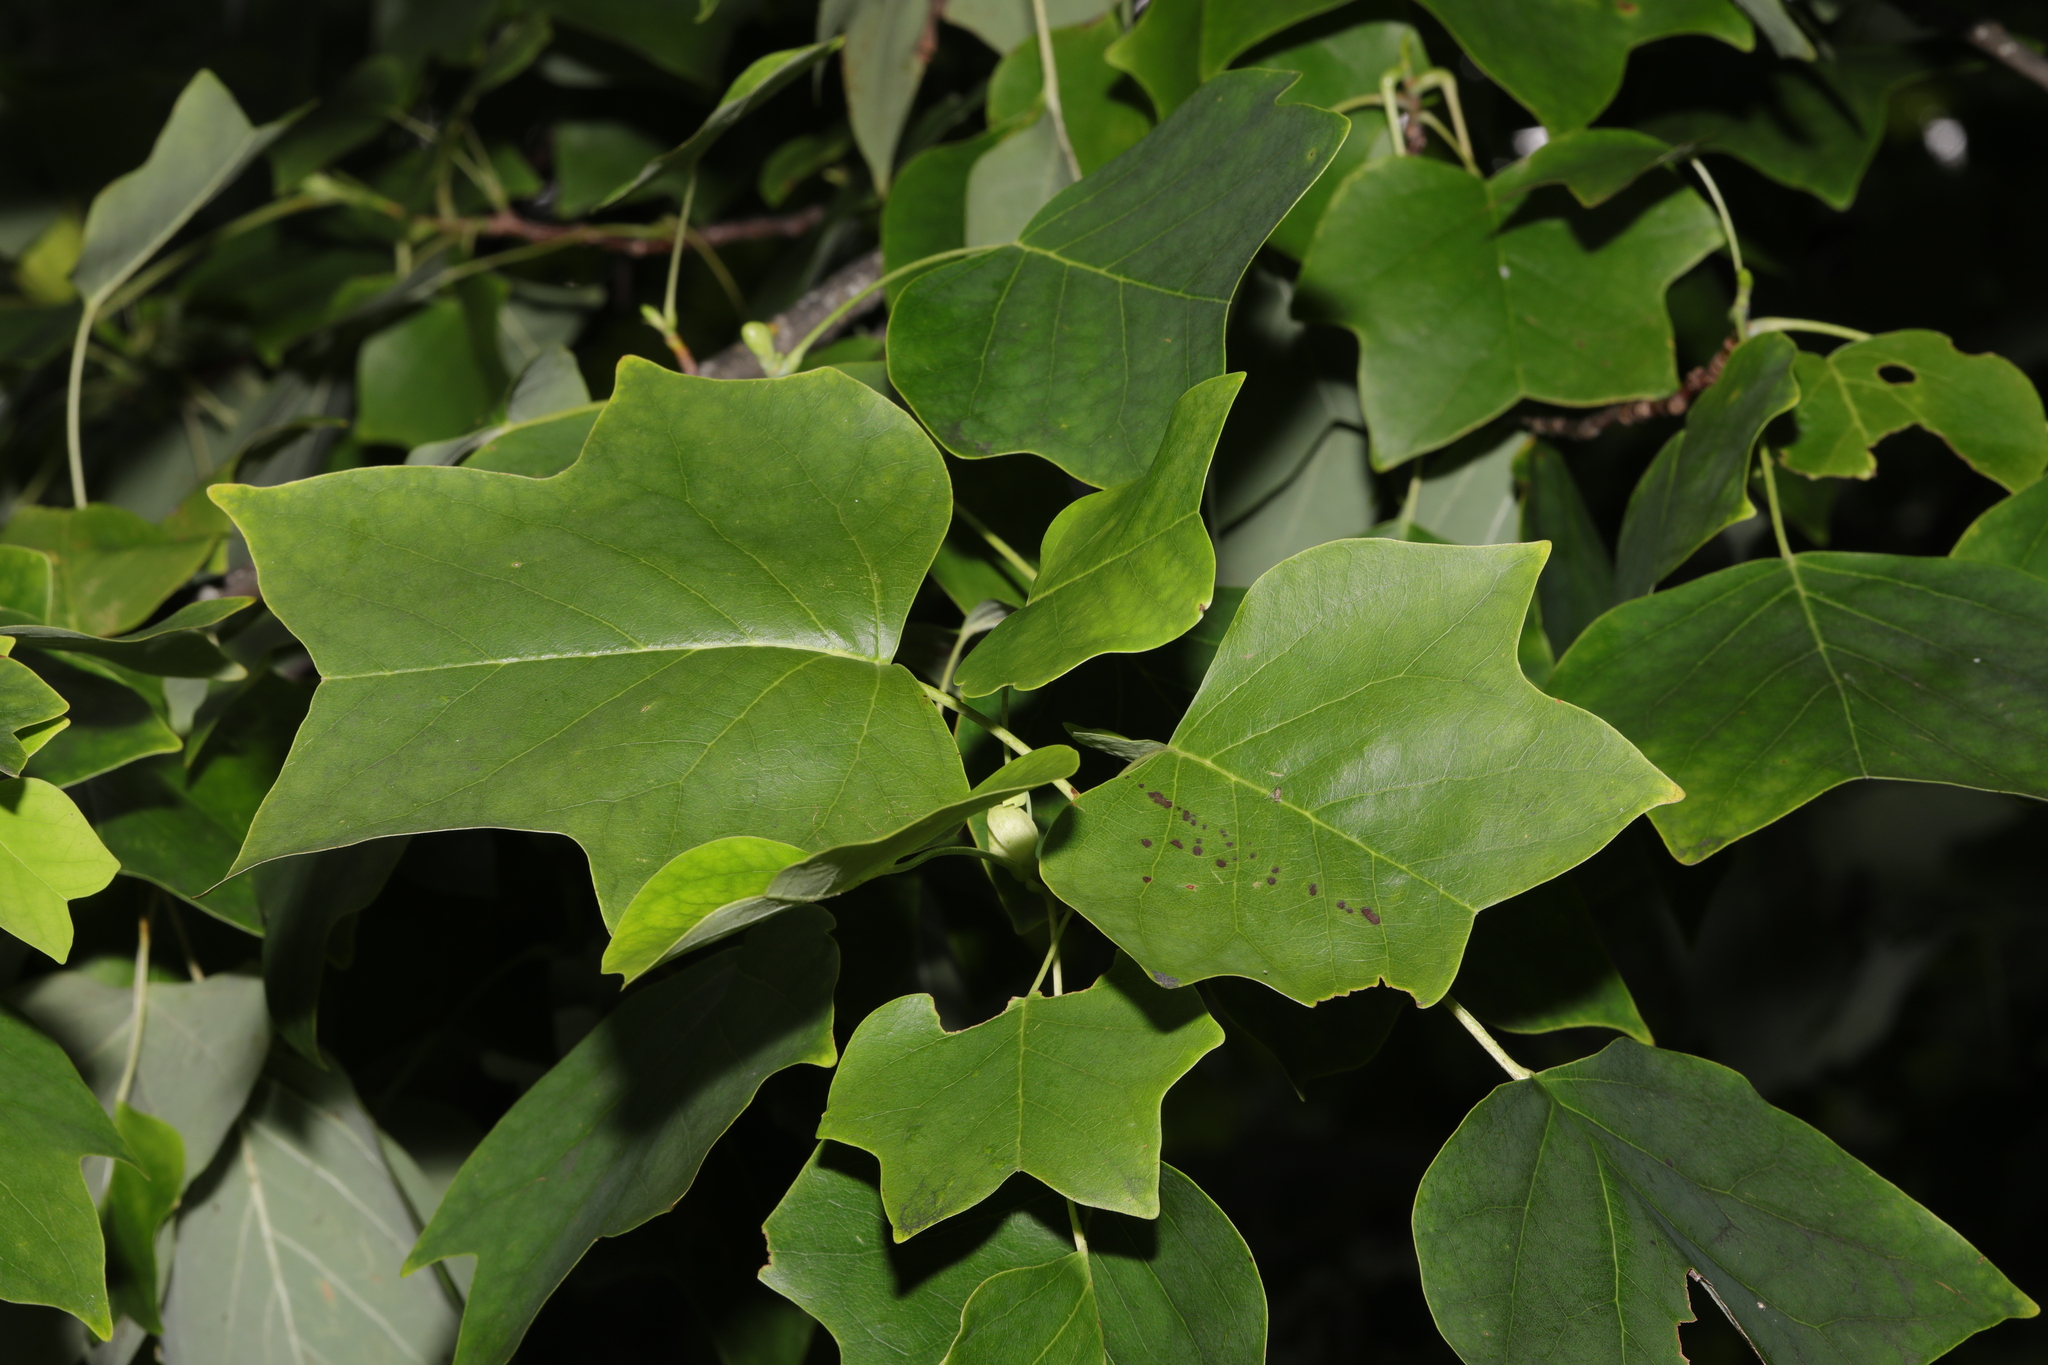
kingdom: Plantae
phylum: Tracheophyta
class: Magnoliopsida
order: Magnoliales
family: Magnoliaceae
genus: Liriodendron
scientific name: Liriodendron tulipifera
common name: Tulip tree
